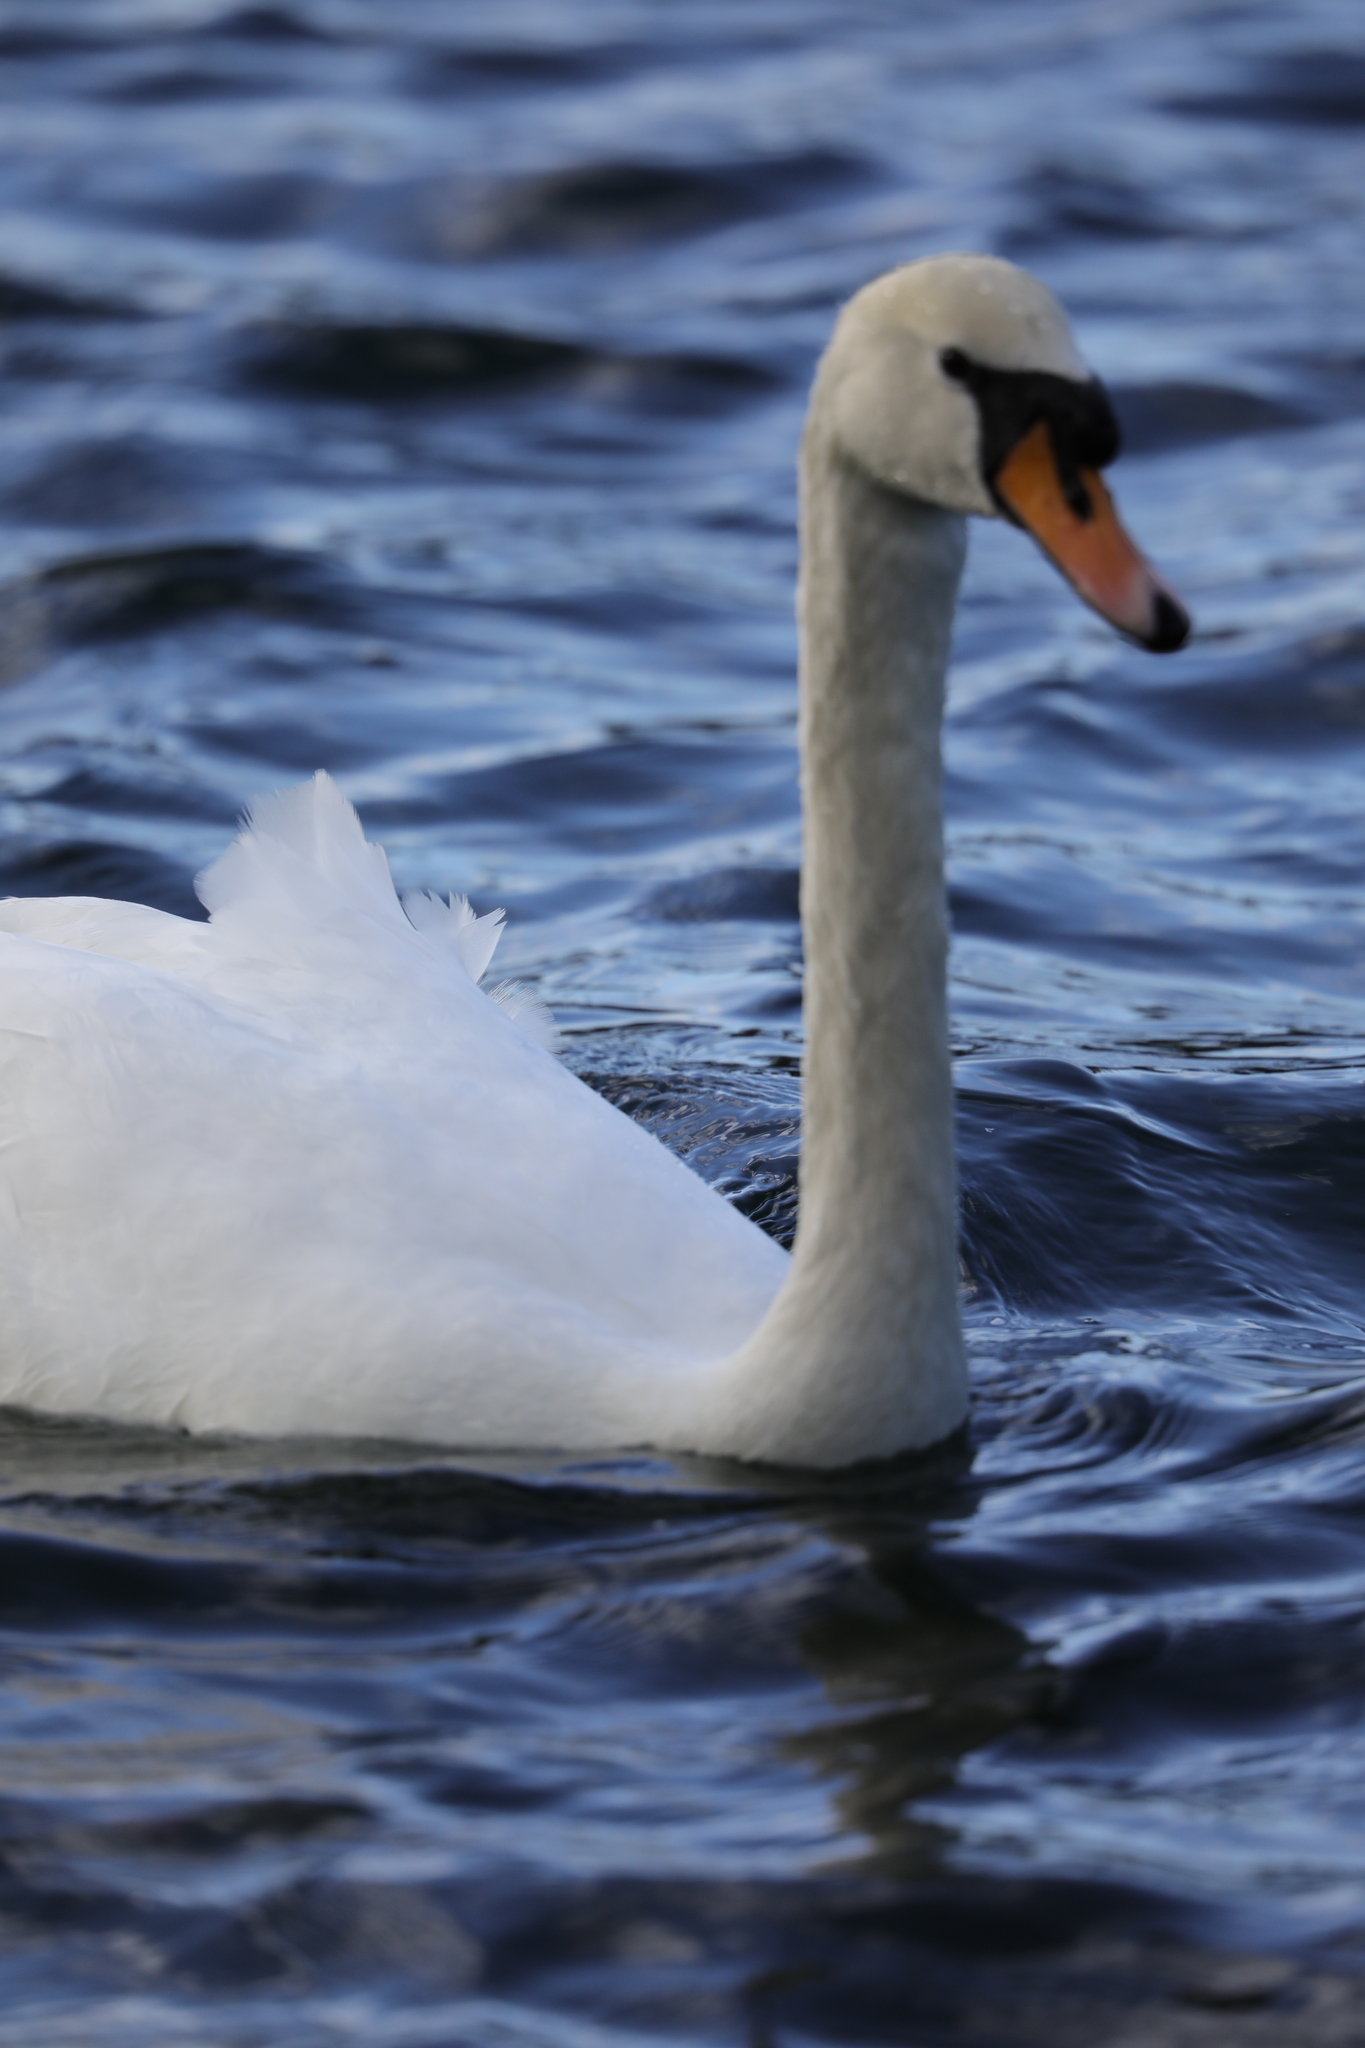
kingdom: Animalia
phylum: Chordata
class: Aves
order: Anseriformes
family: Anatidae
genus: Cygnus
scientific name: Cygnus olor
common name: Mute swan
